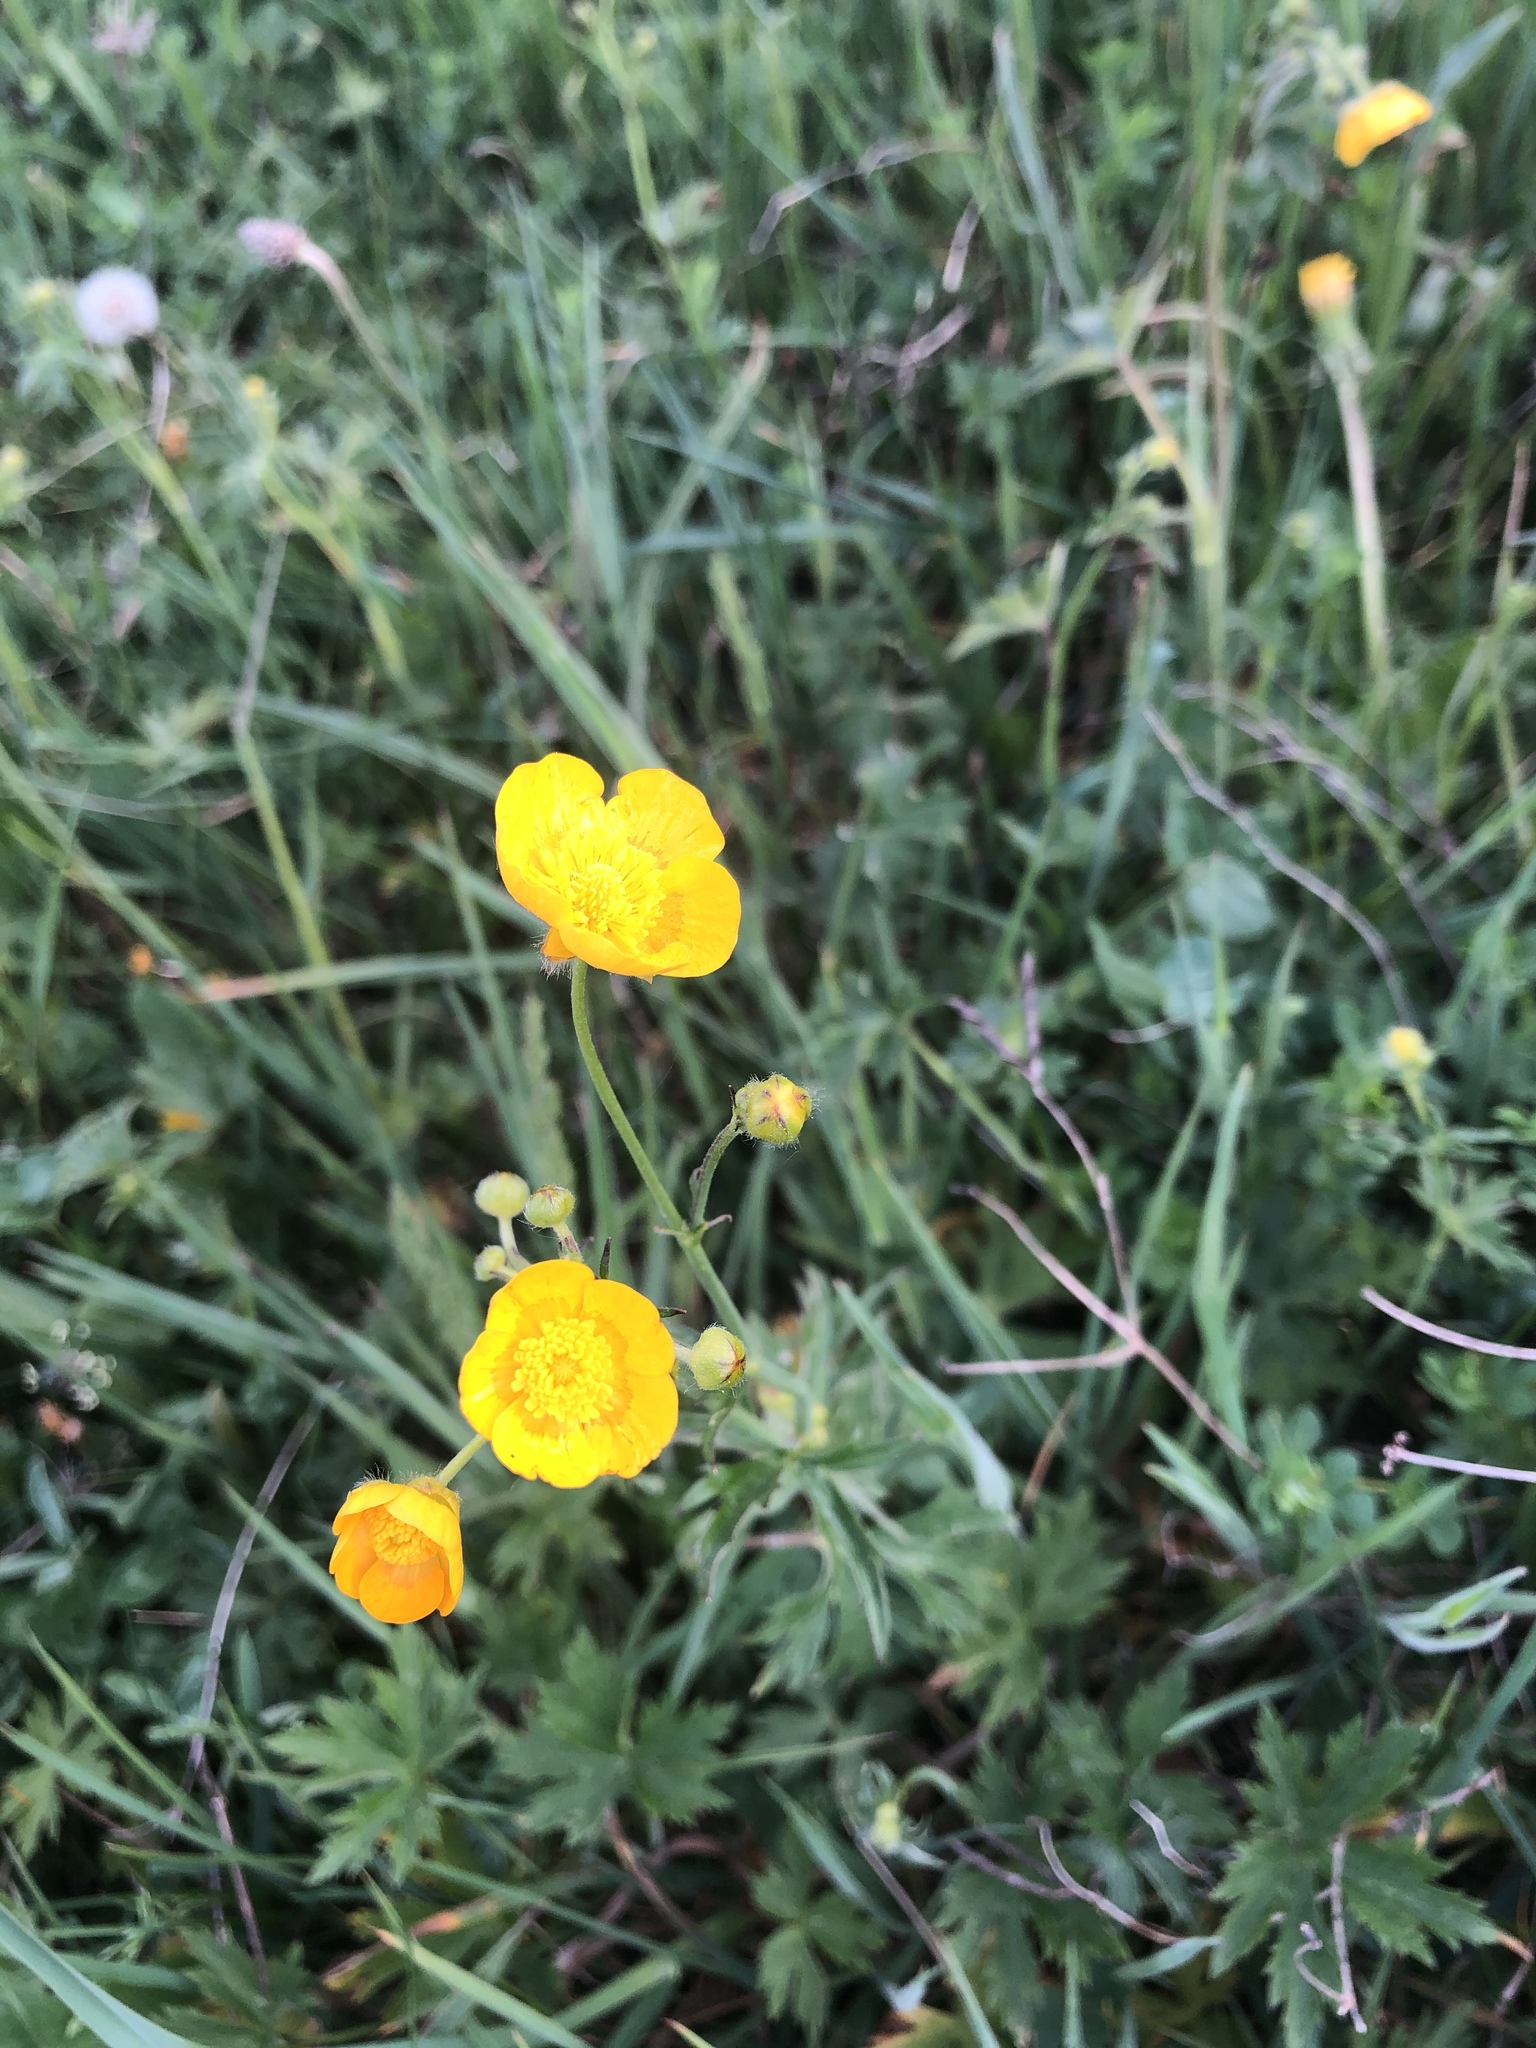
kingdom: Plantae
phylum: Tracheophyta
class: Magnoliopsida
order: Ranunculales
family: Ranunculaceae
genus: Ranunculus
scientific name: Ranunculus acris
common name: Meadow buttercup
